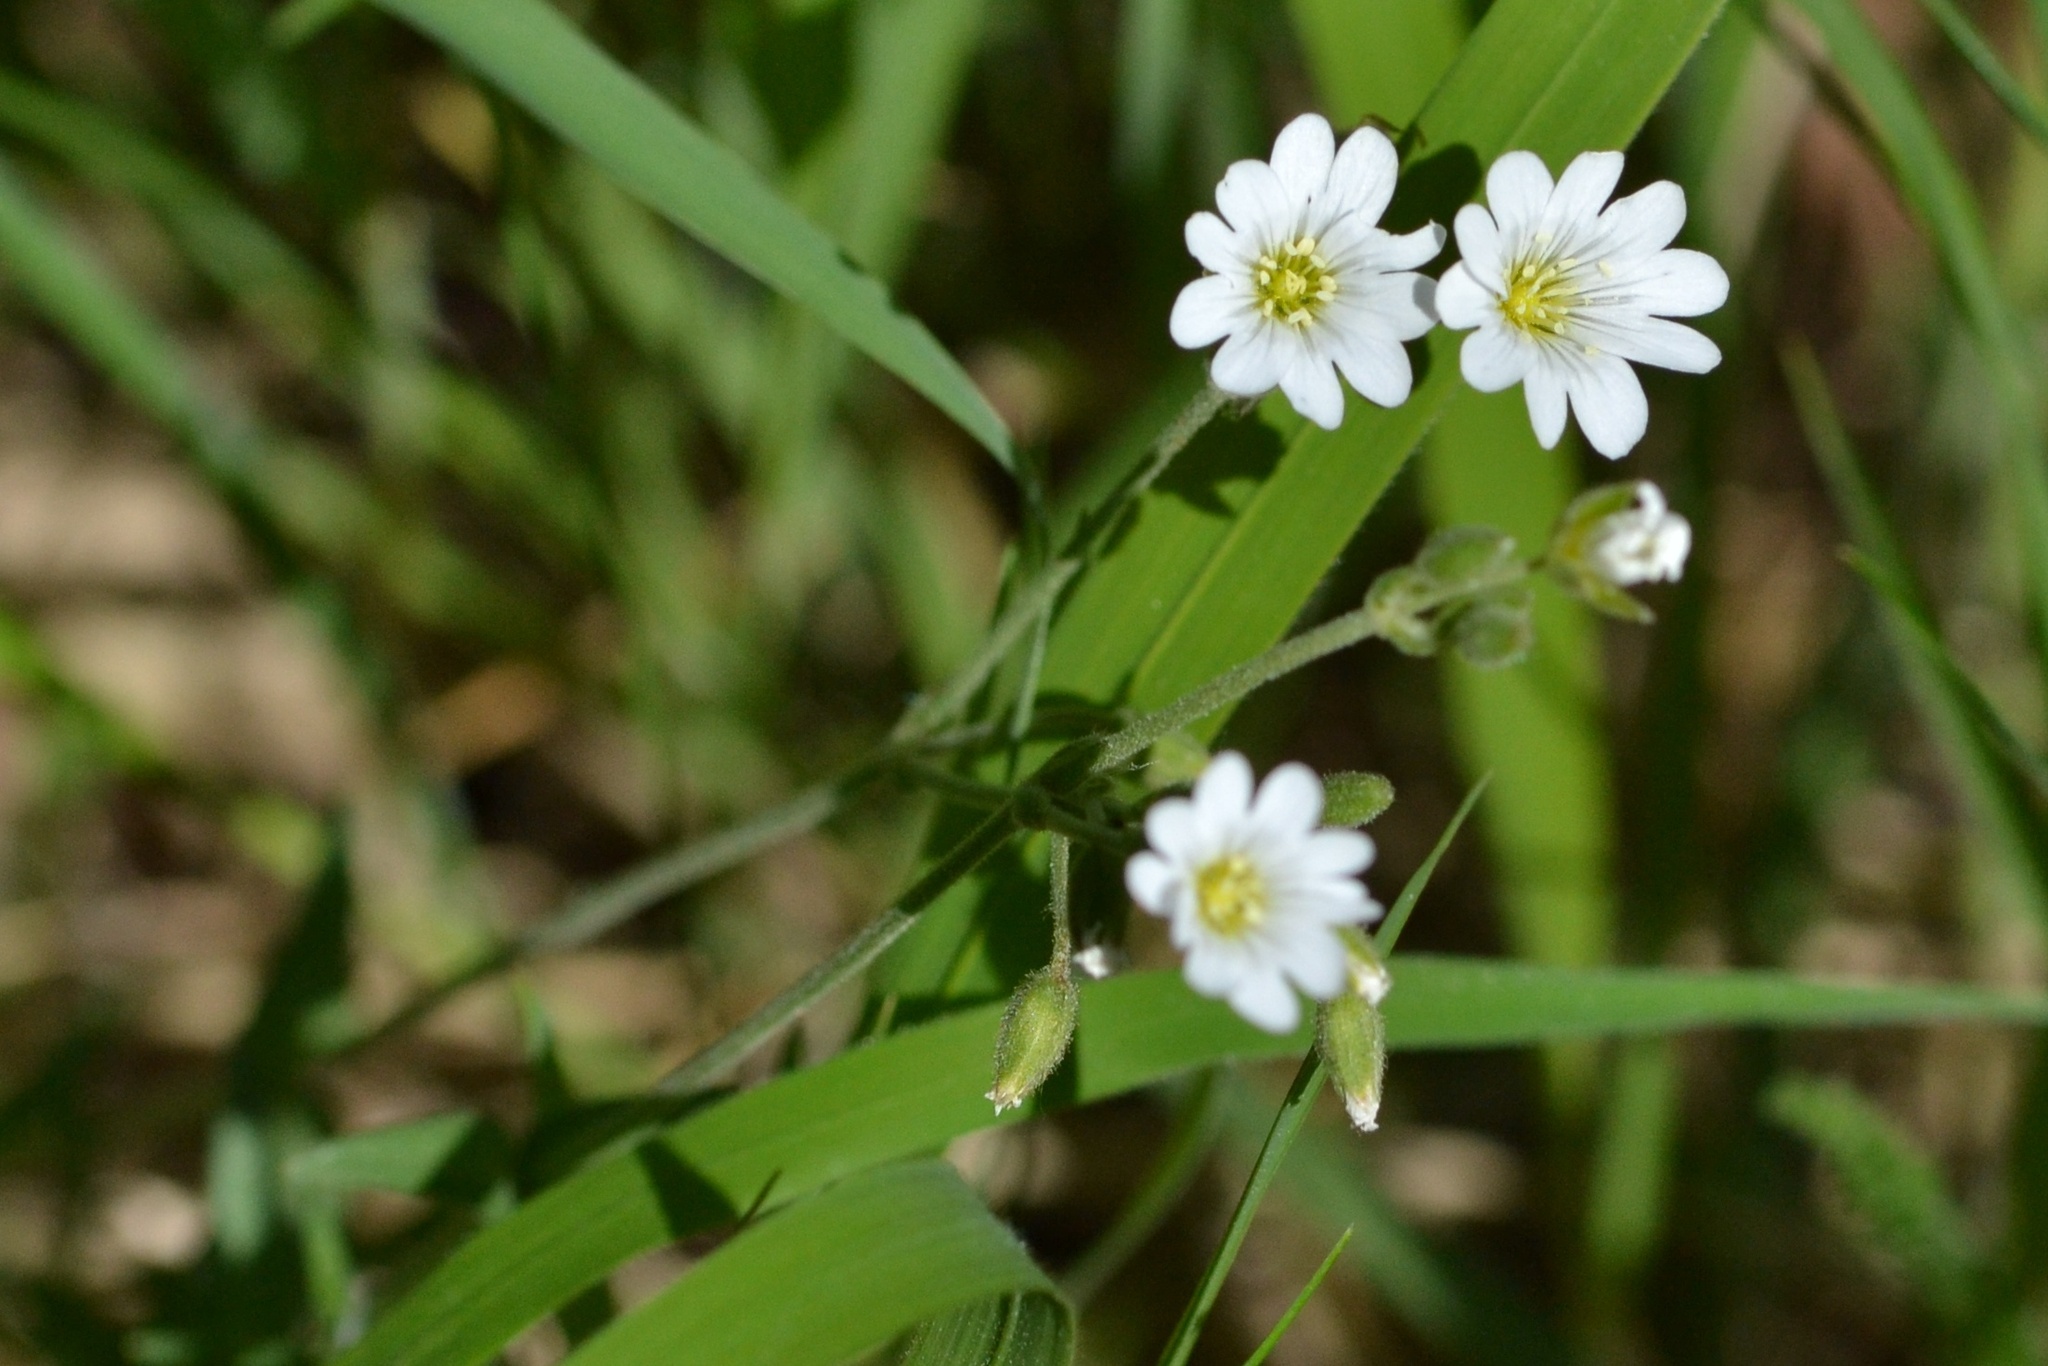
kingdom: Plantae
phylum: Tracheophyta
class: Magnoliopsida
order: Caryophyllales
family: Caryophyllaceae
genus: Cerastium
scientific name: Cerastium arvense
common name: Field mouse-ear
